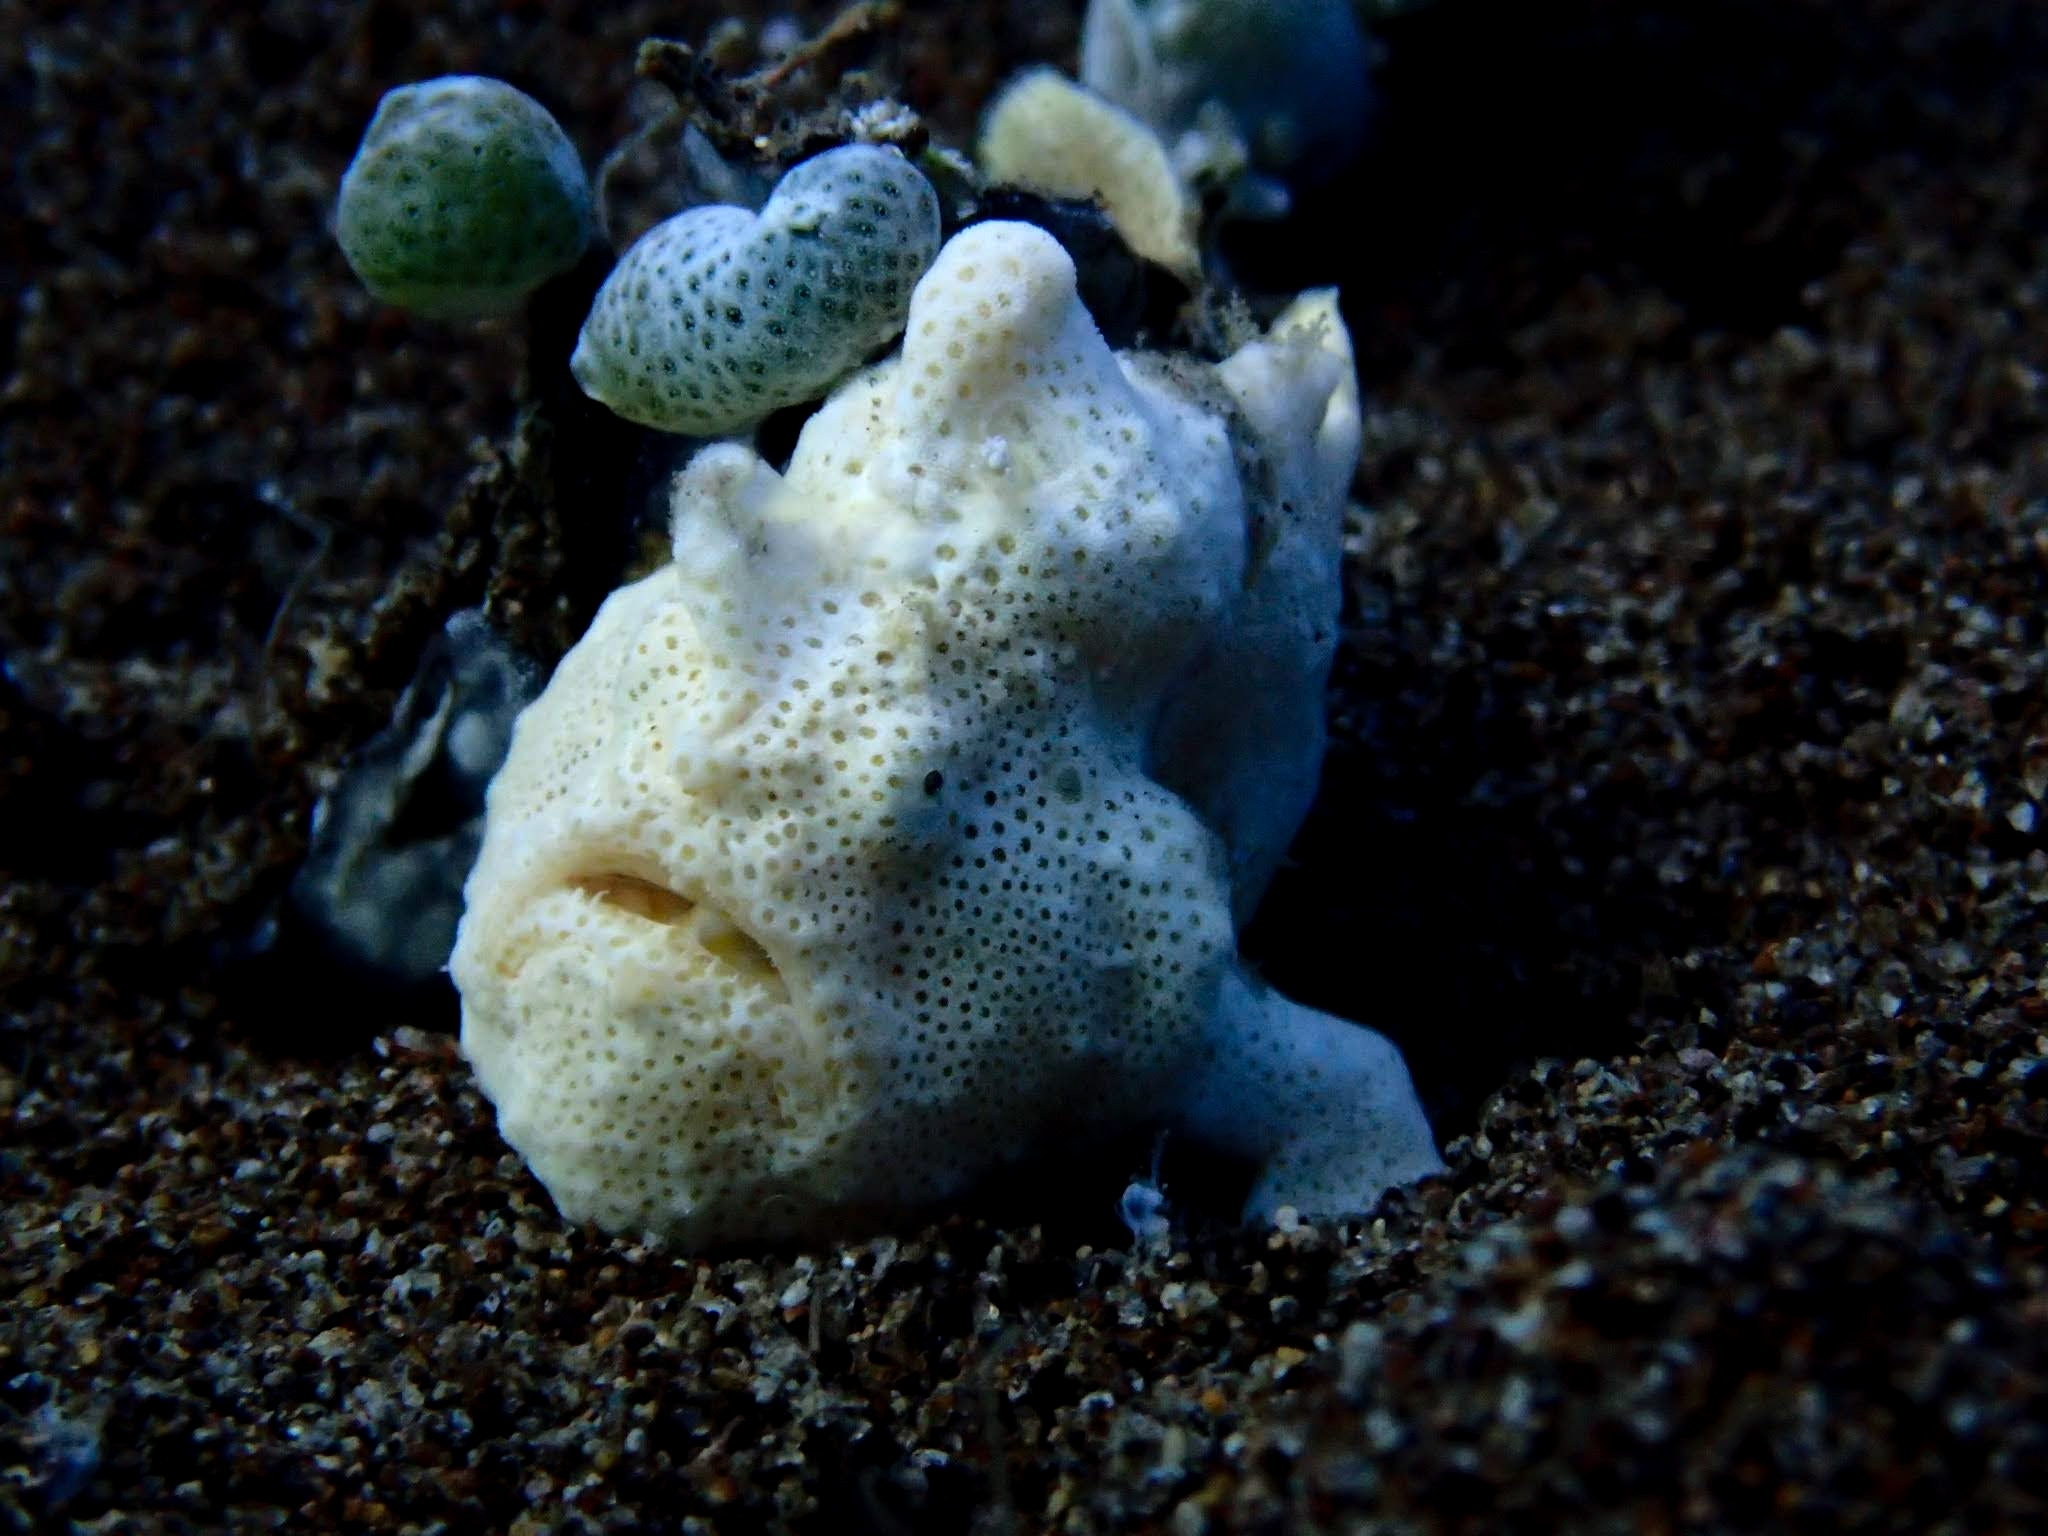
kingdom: Animalia
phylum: Chordata
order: Lophiiformes
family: Antennariidae
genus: Antennarius
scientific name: Antennarius pictus
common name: Painted frogfish
